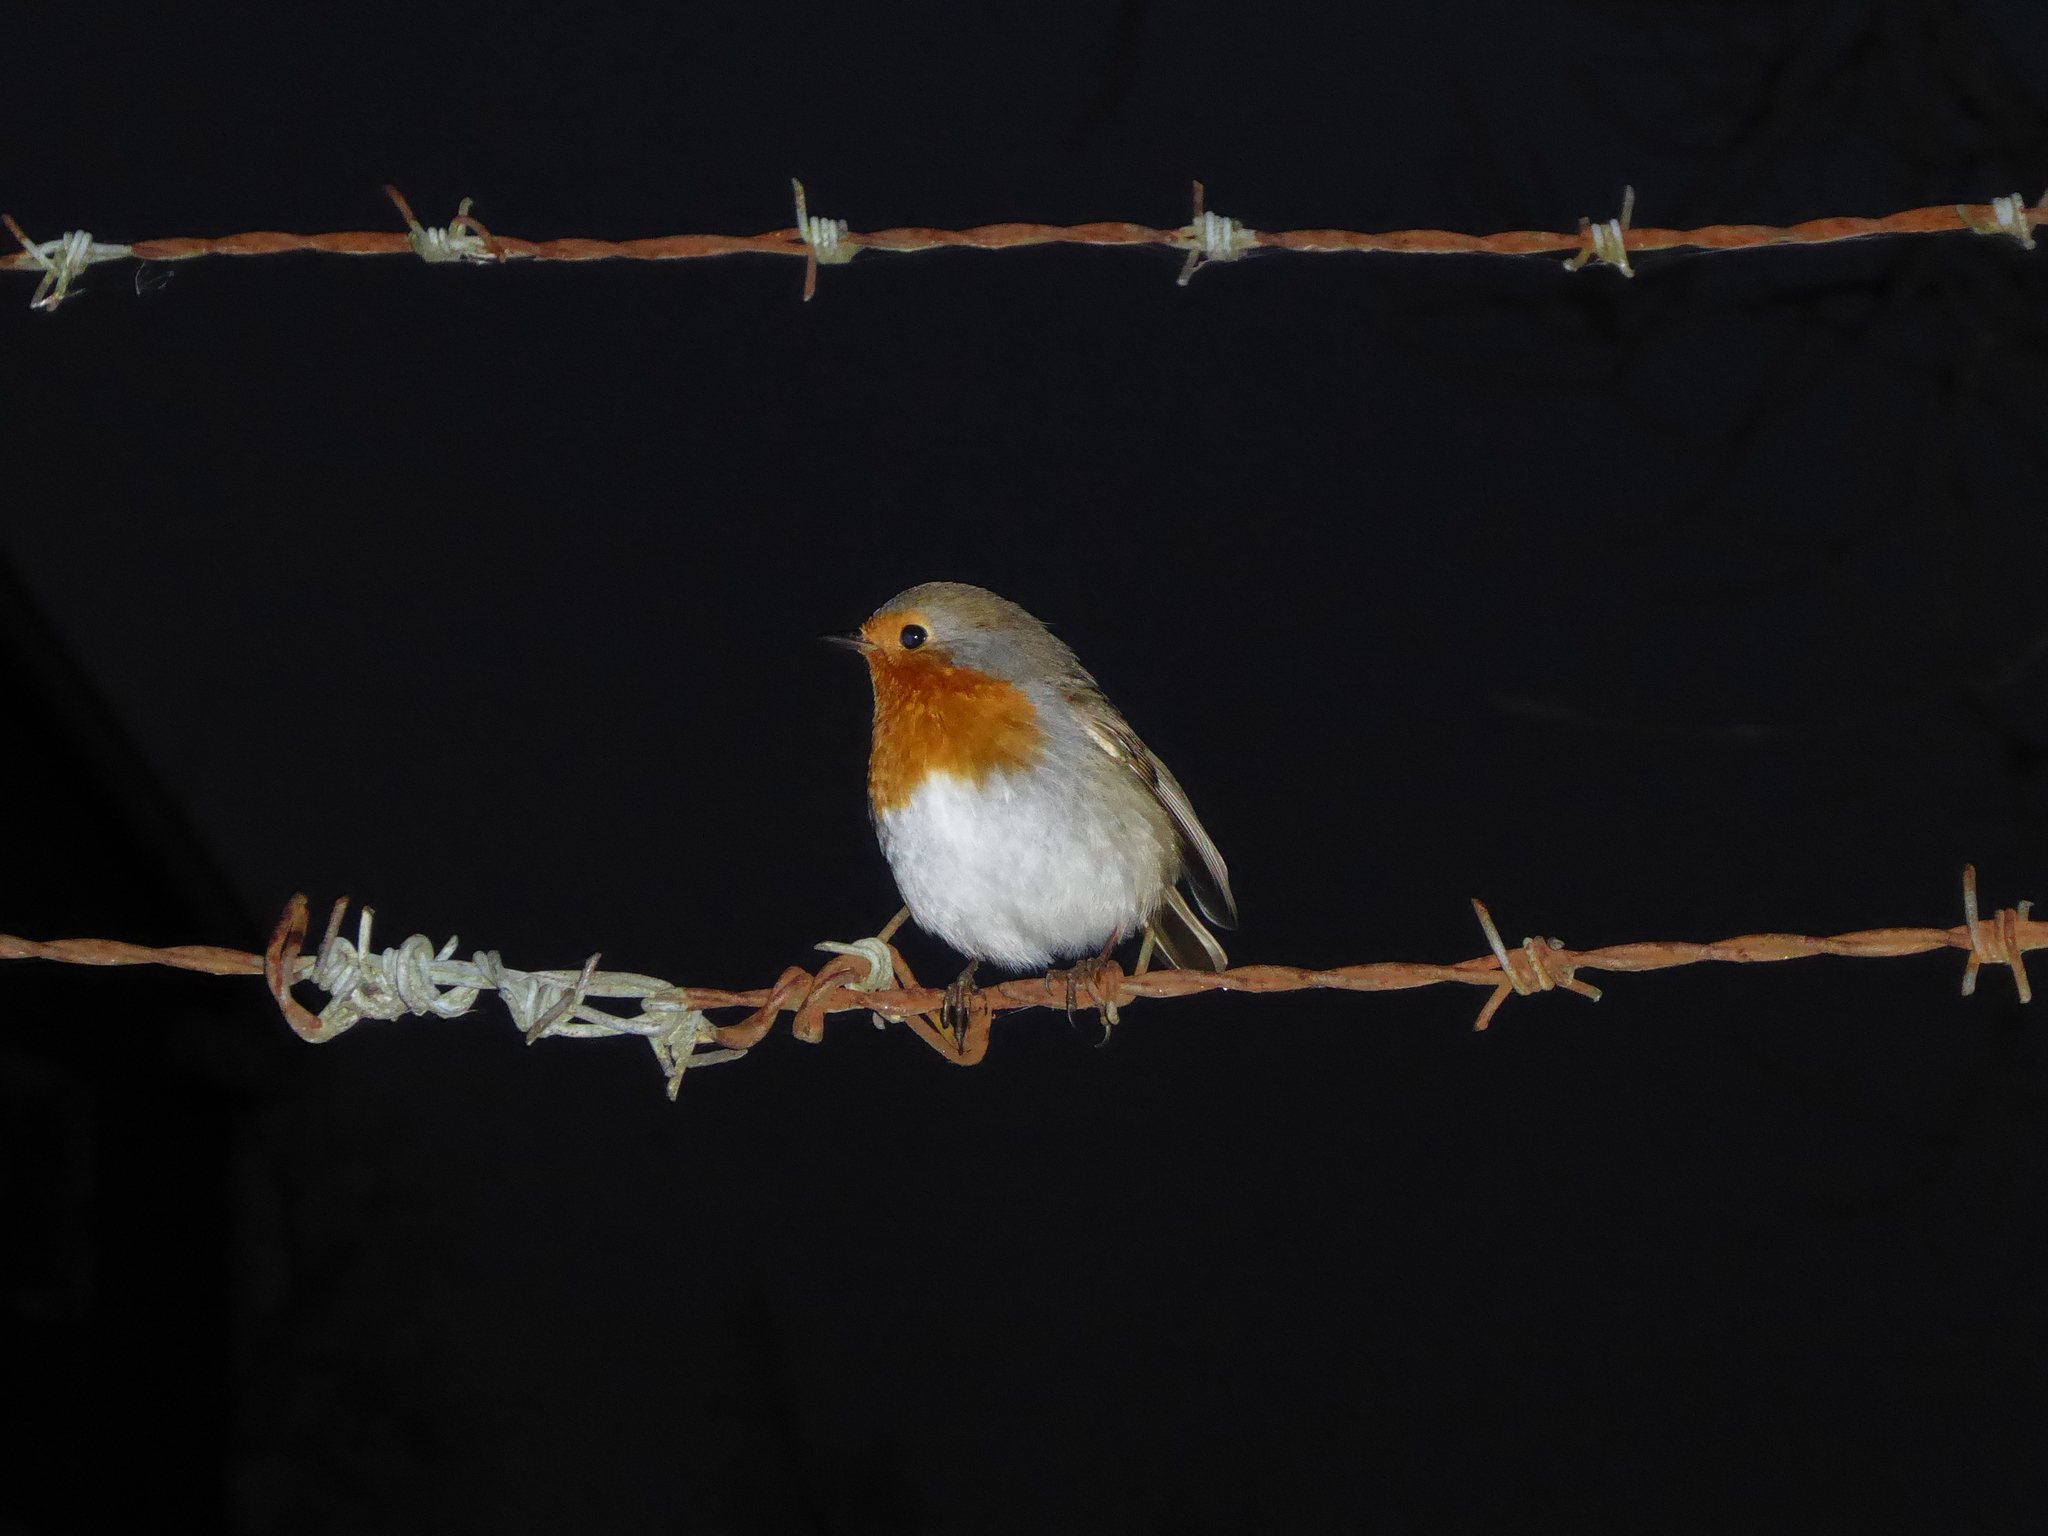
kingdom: Animalia
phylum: Chordata
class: Aves
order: Passeriformes
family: Muscicapidae
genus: Erithacus
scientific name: Erithacus rubecula
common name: European robin
